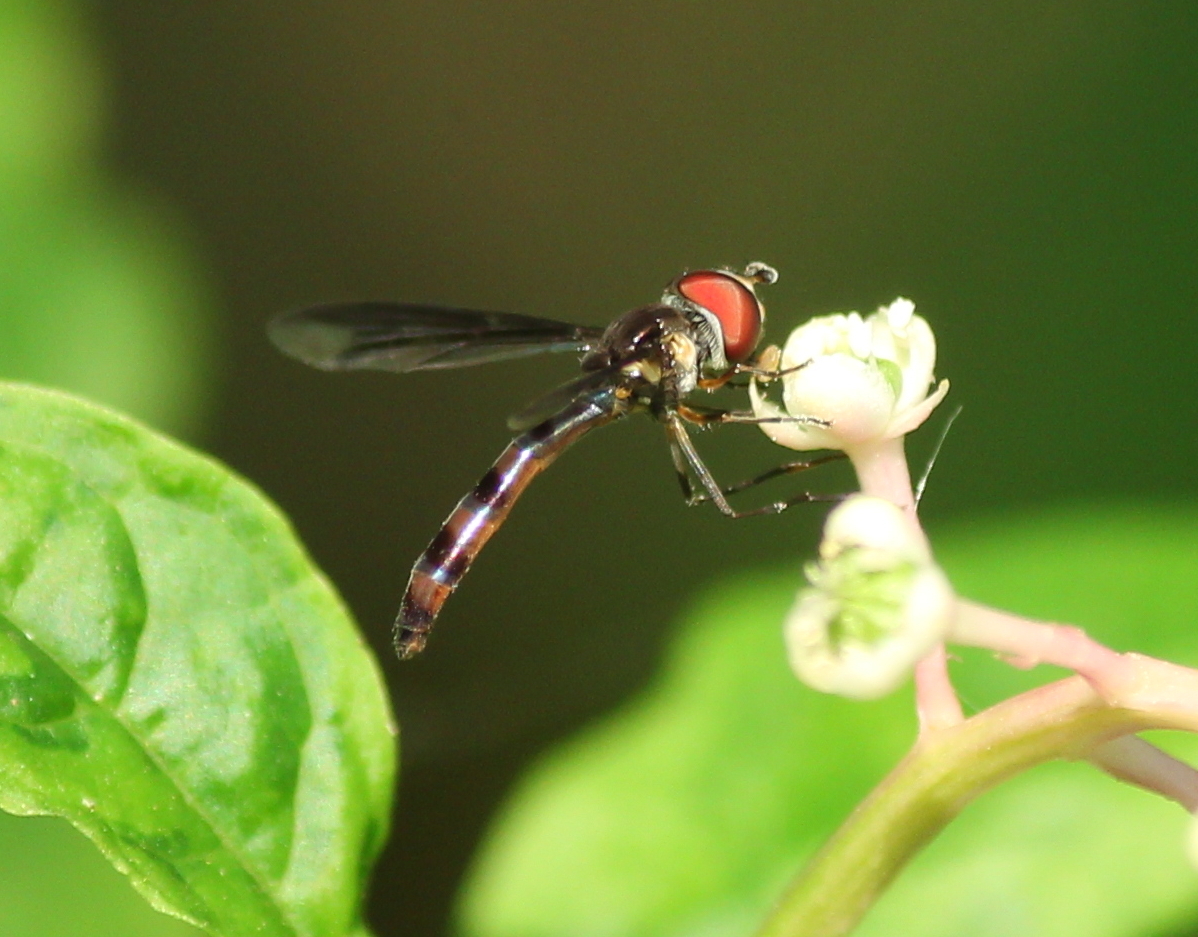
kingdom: Animalia
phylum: Arthropoda
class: Insecta
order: Diptera
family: Syrphidae
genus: Ocyptamus
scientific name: Ocyptamus fuscipennis
